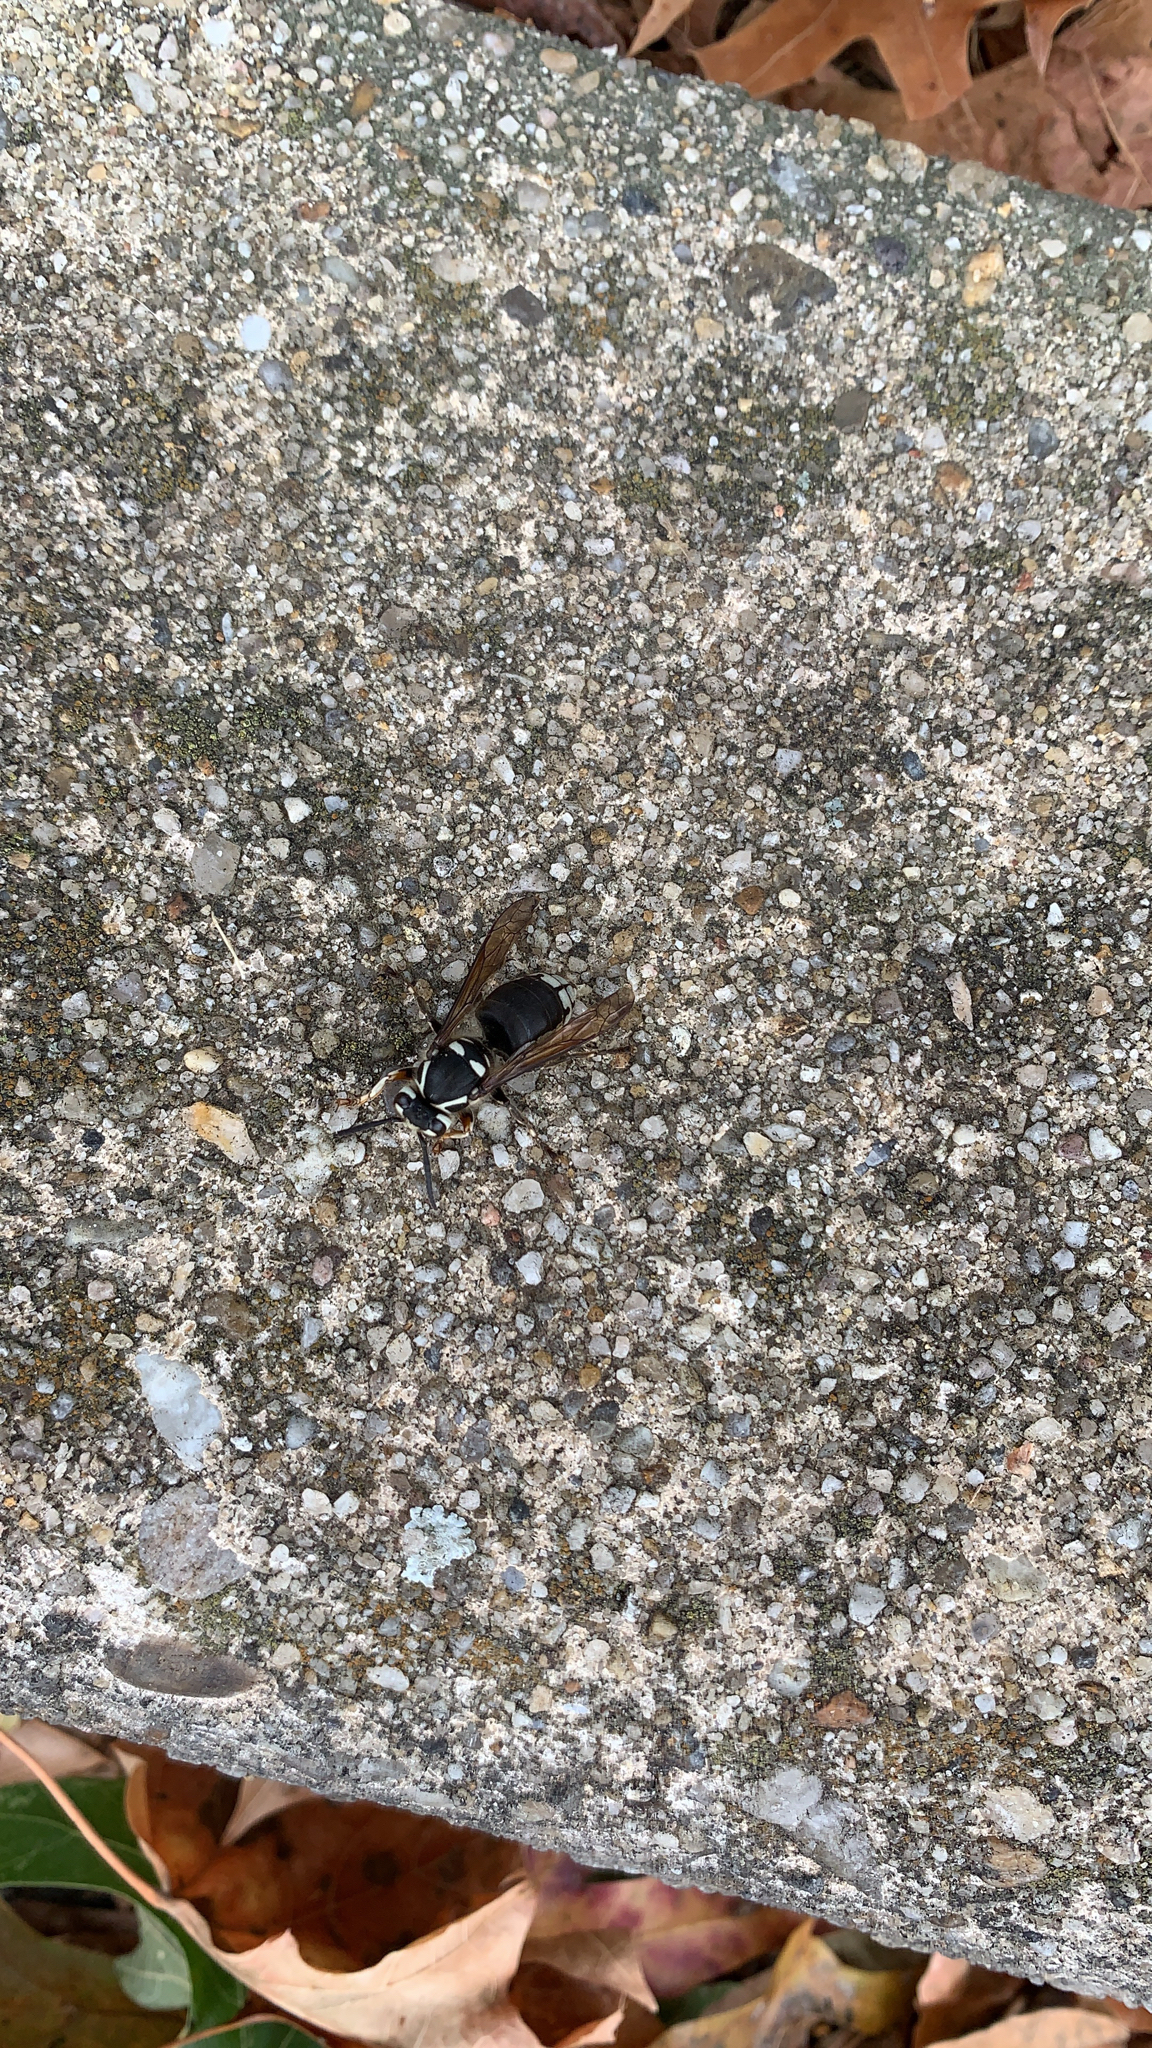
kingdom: Animalia
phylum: Arthropoda
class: Insecta
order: Hymenoptera
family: Vespidae
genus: Dolichovespula
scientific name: Dolichovespula maculata
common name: Bald-faced hornet
